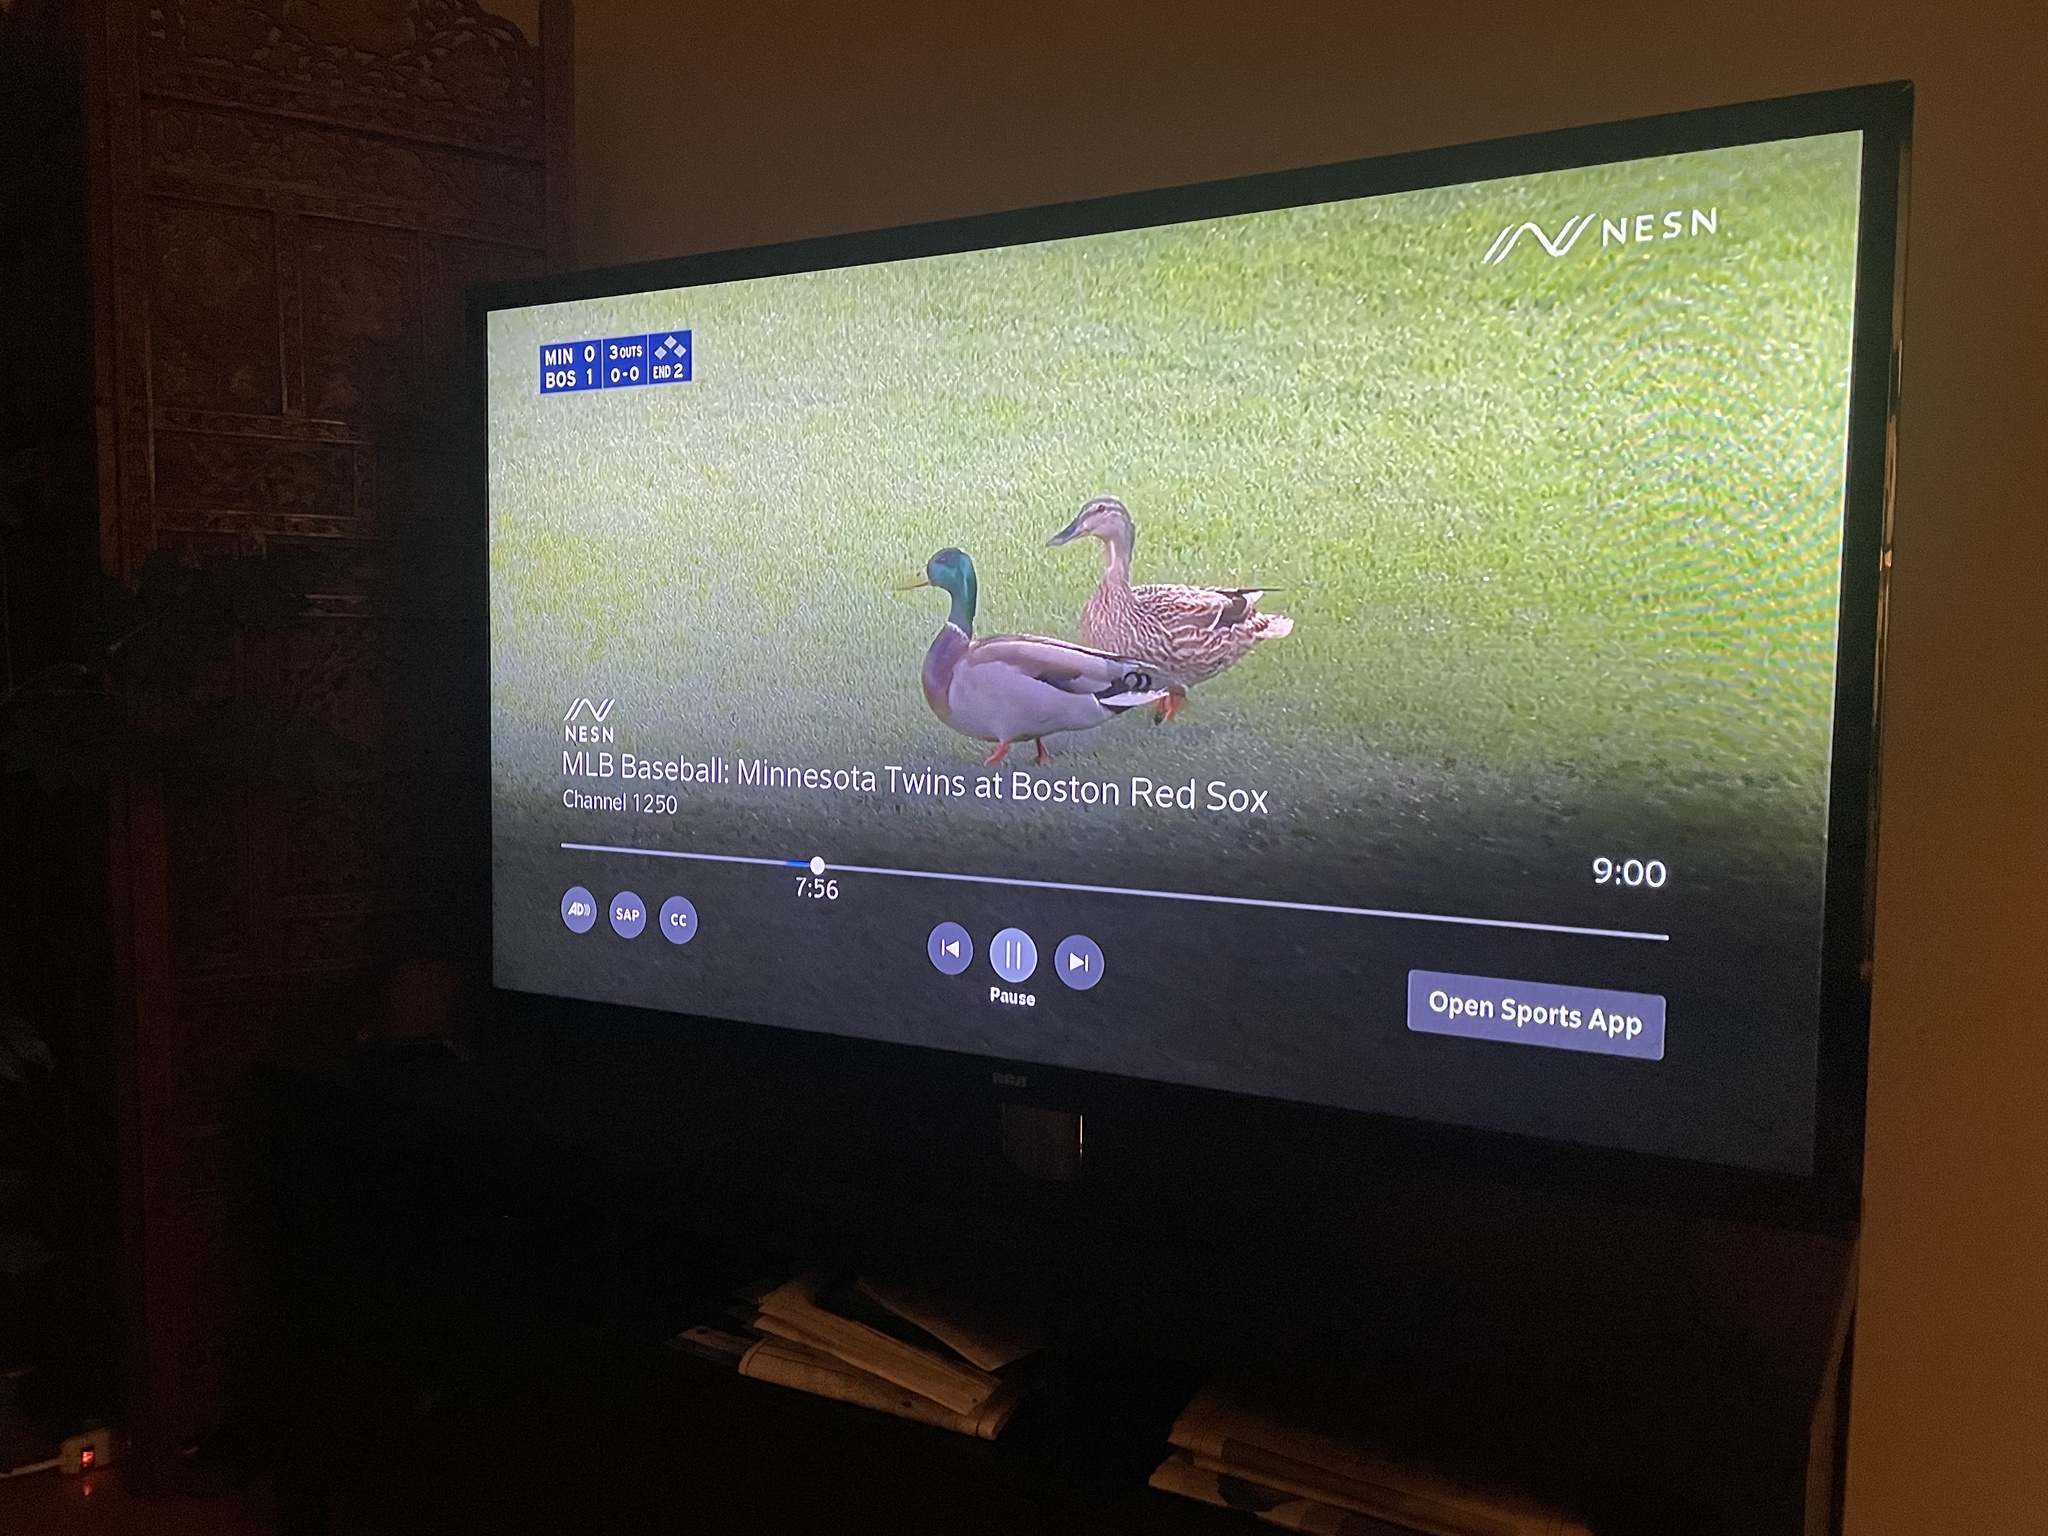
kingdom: Animalia
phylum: Chordata
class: Aves
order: Anseriformes
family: Anatidae
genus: Anas
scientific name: Anas platyrhynchos
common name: Mallard
